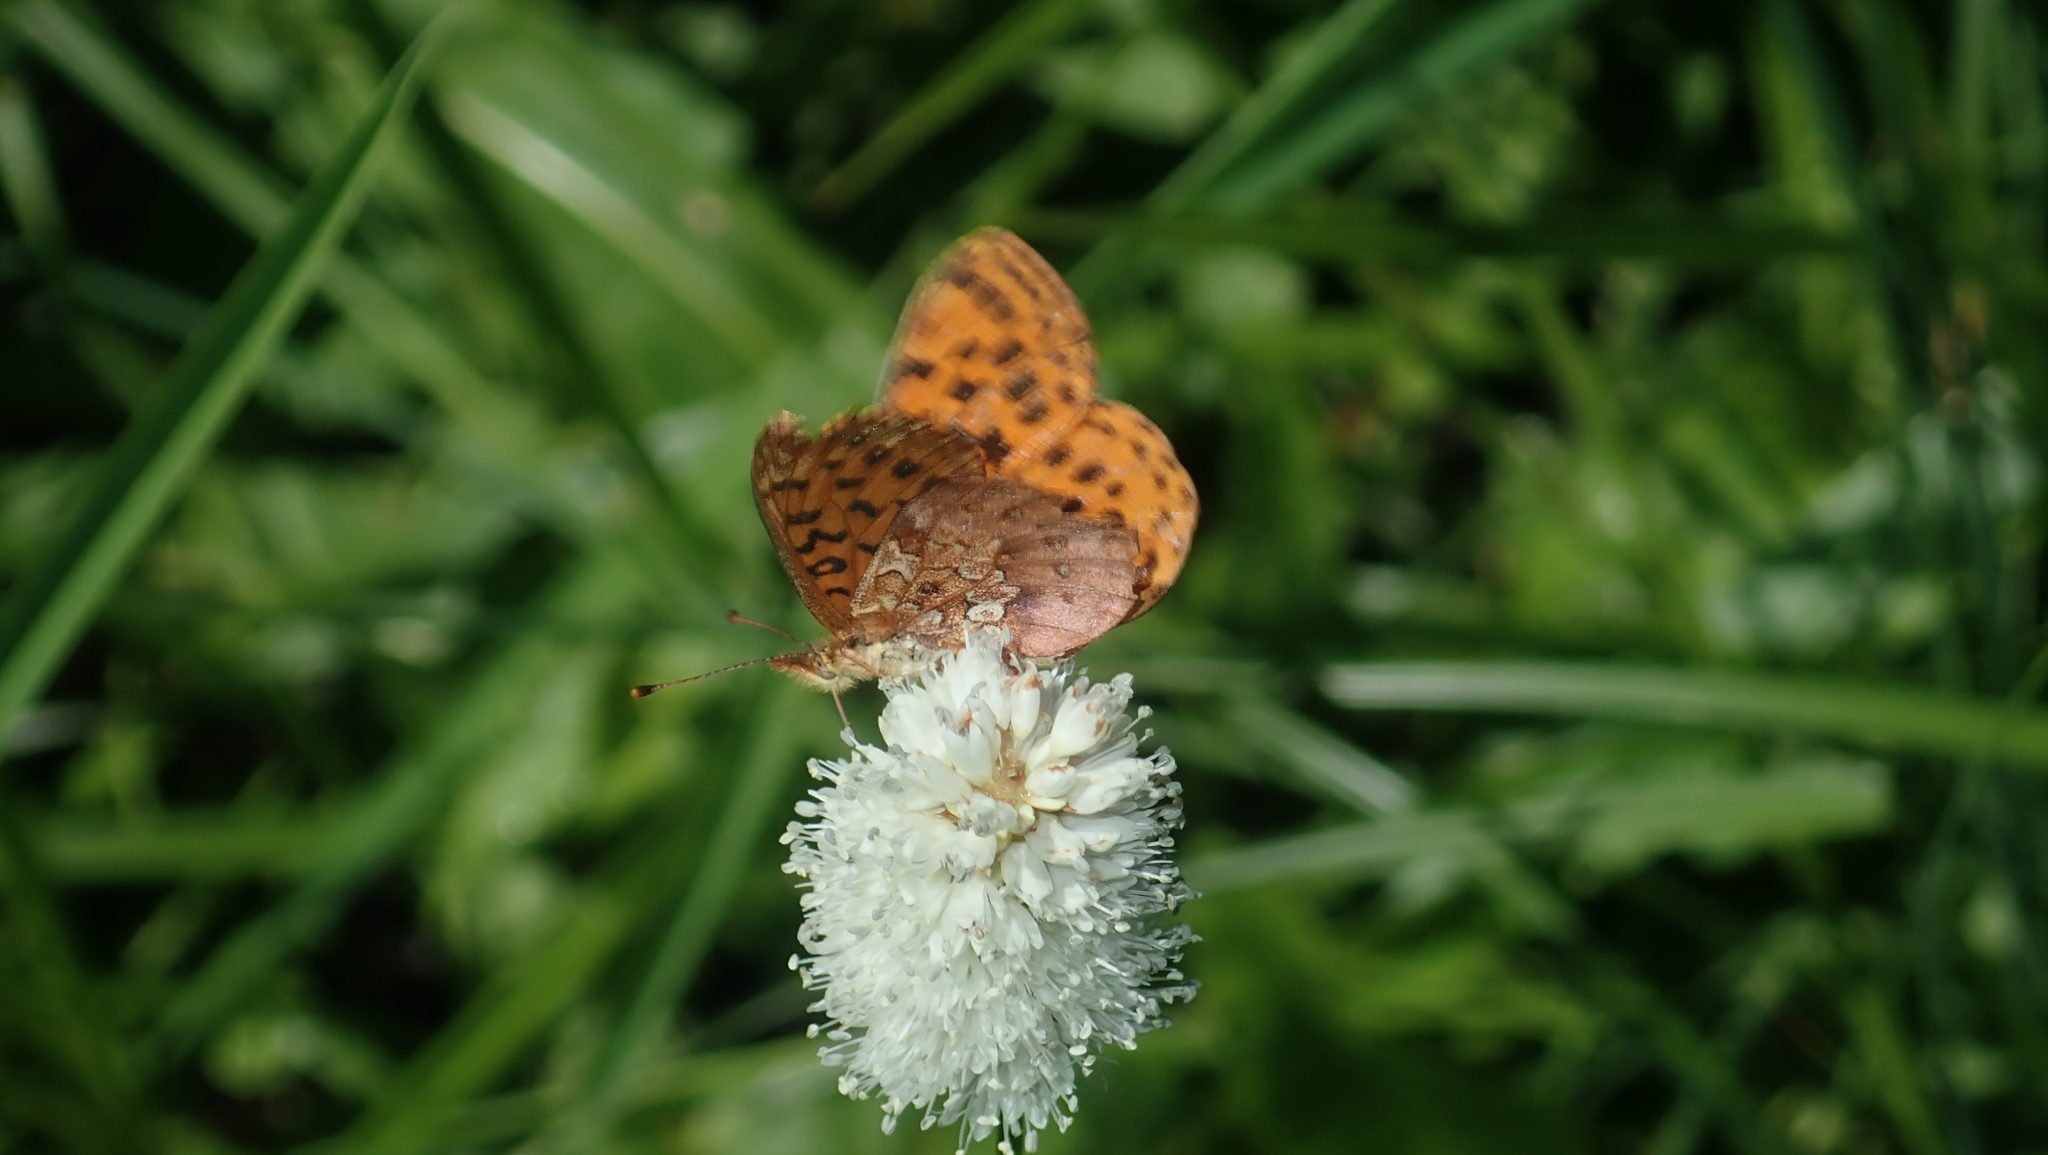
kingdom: Animalia
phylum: Arthropoda
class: Insecta
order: Lepidoptera
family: Nymphalidae
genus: Boloria
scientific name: Boloria epithore
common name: Pacific fritillary
